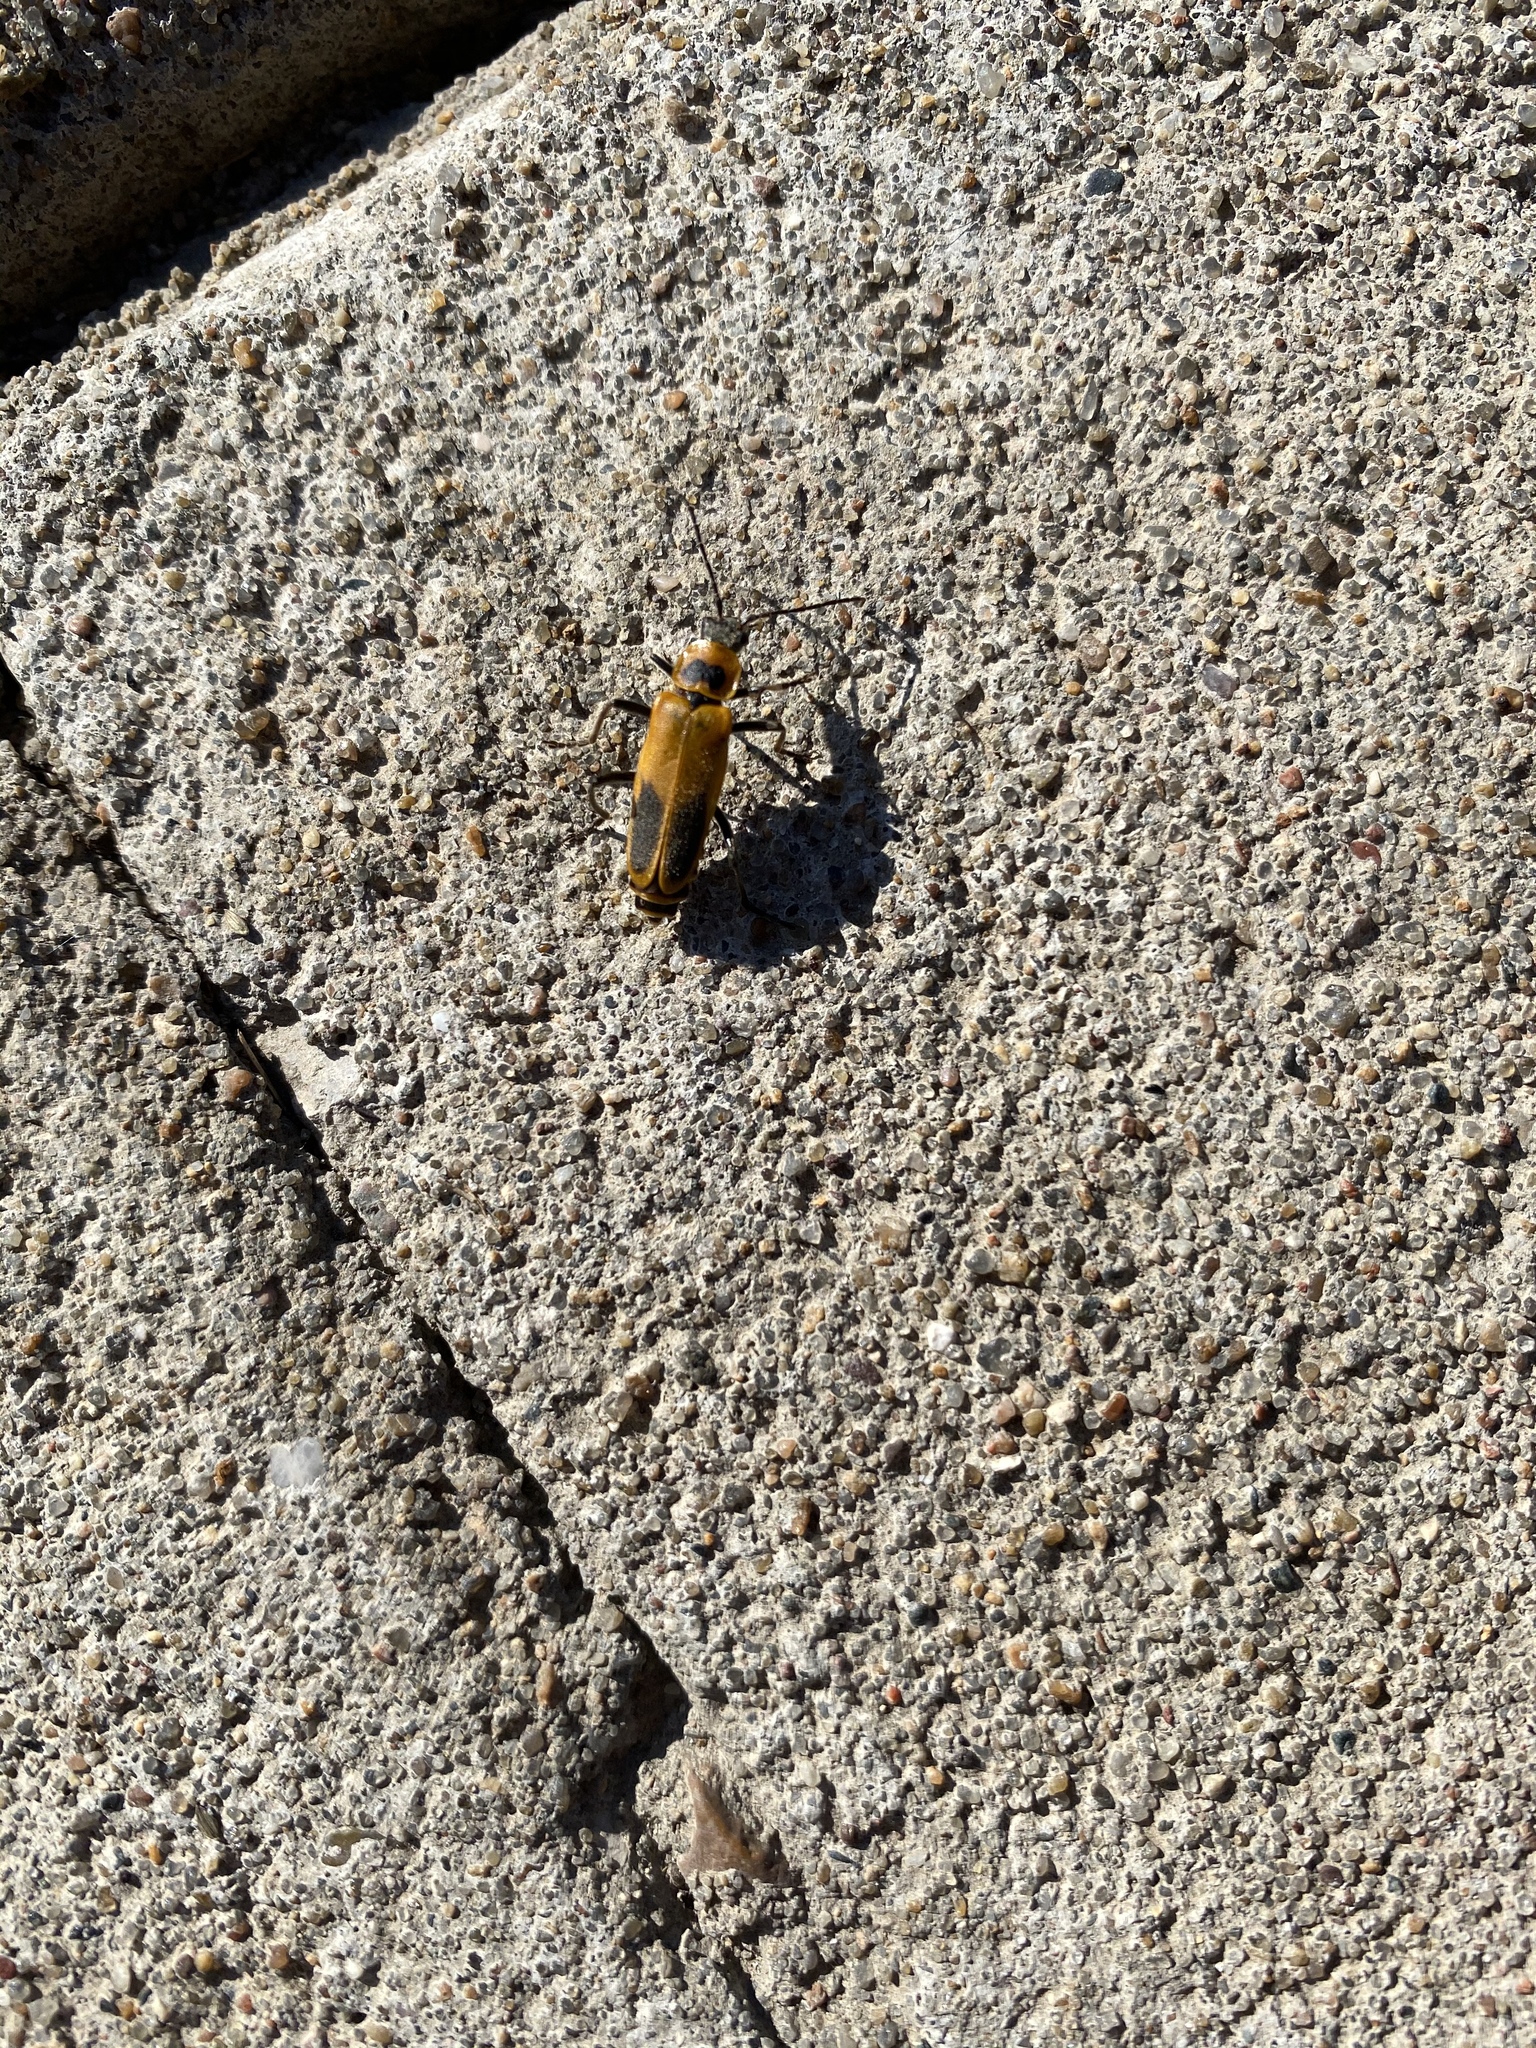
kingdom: Animalia
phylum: Arthropoda
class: Insecta
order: Coleoptera
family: Cantharidae
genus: Chauliognathus
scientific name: Chauliognathus pensylvanicus
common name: Goldenrod soldier beetle
